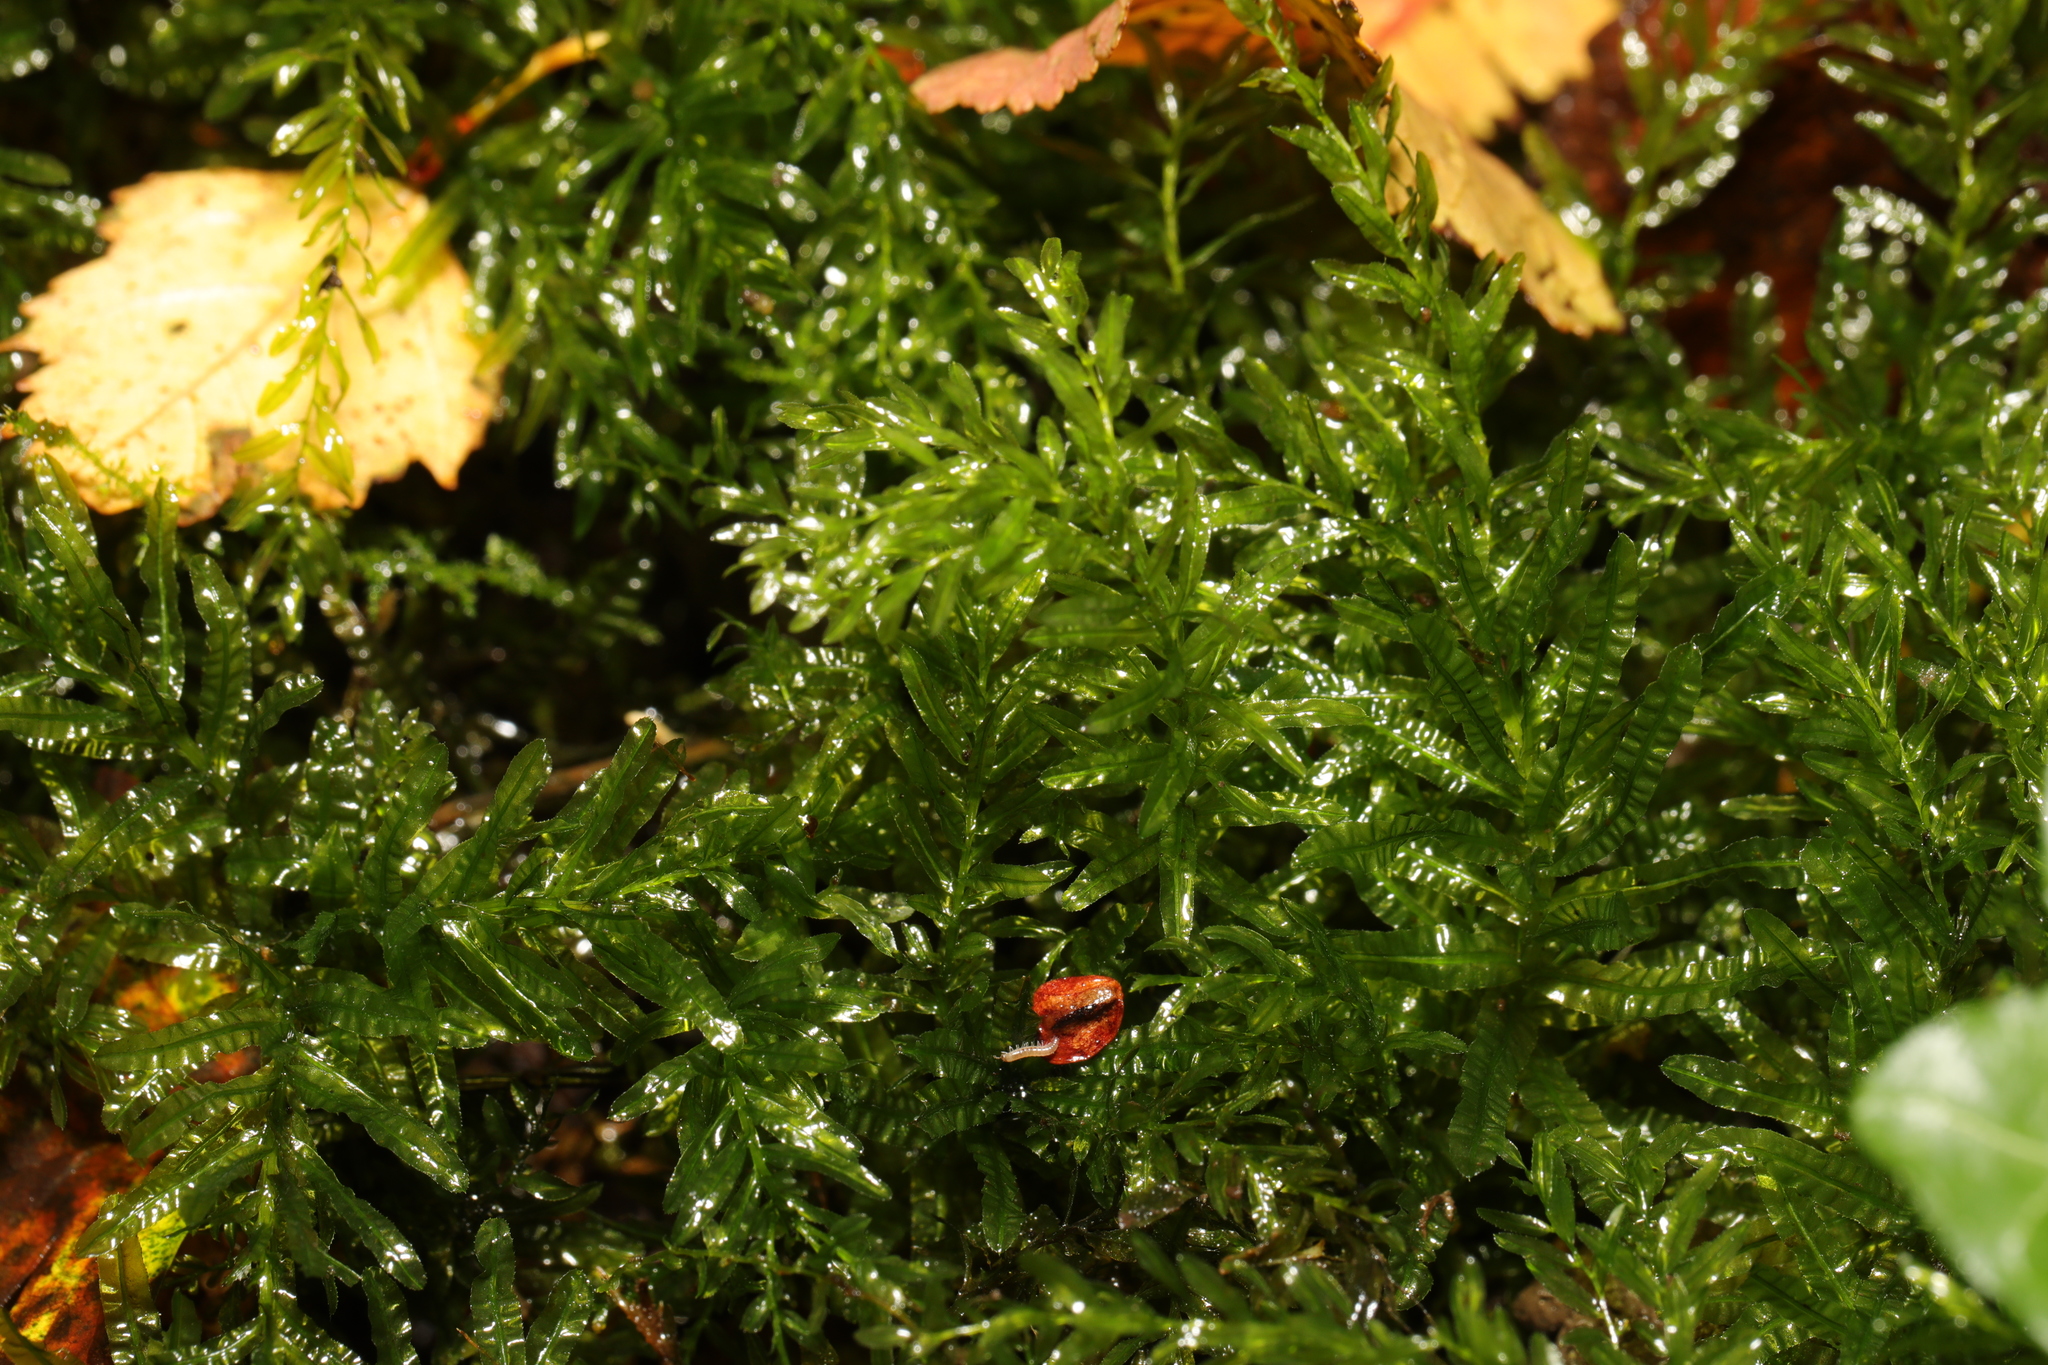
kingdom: Plantae
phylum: Bryophyta
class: Bryopsida
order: Bryales
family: Mniaceae
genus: Plagiomnium
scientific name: Plagiomnium undulatum
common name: Hart's-tongue thyme-moss
